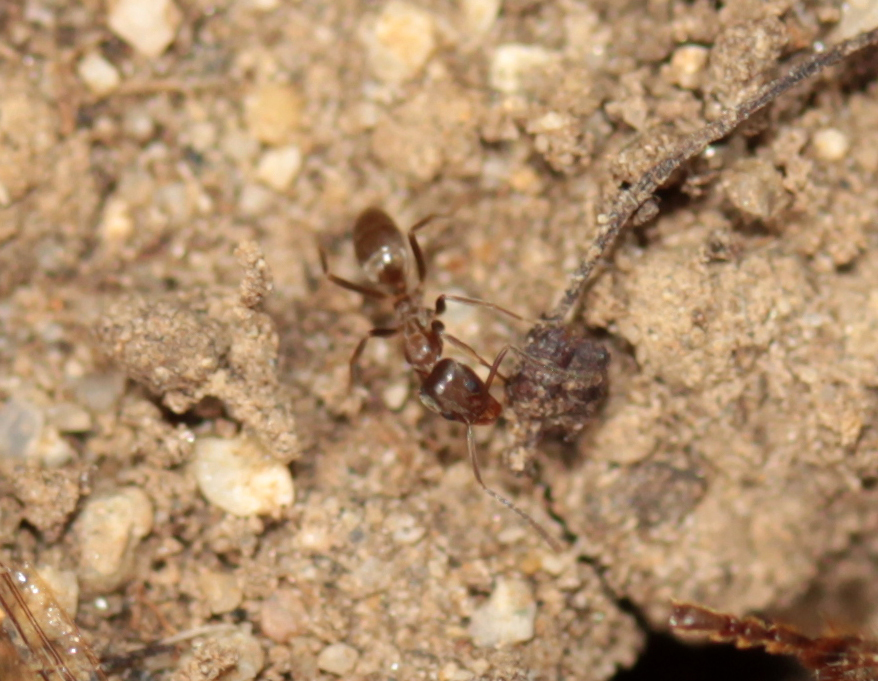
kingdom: Animalia
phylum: Arthropoda
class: Insecta
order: Hymenoptera
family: Formicidae
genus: Linepithema
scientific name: Linepithema humile
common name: Argentine ant
